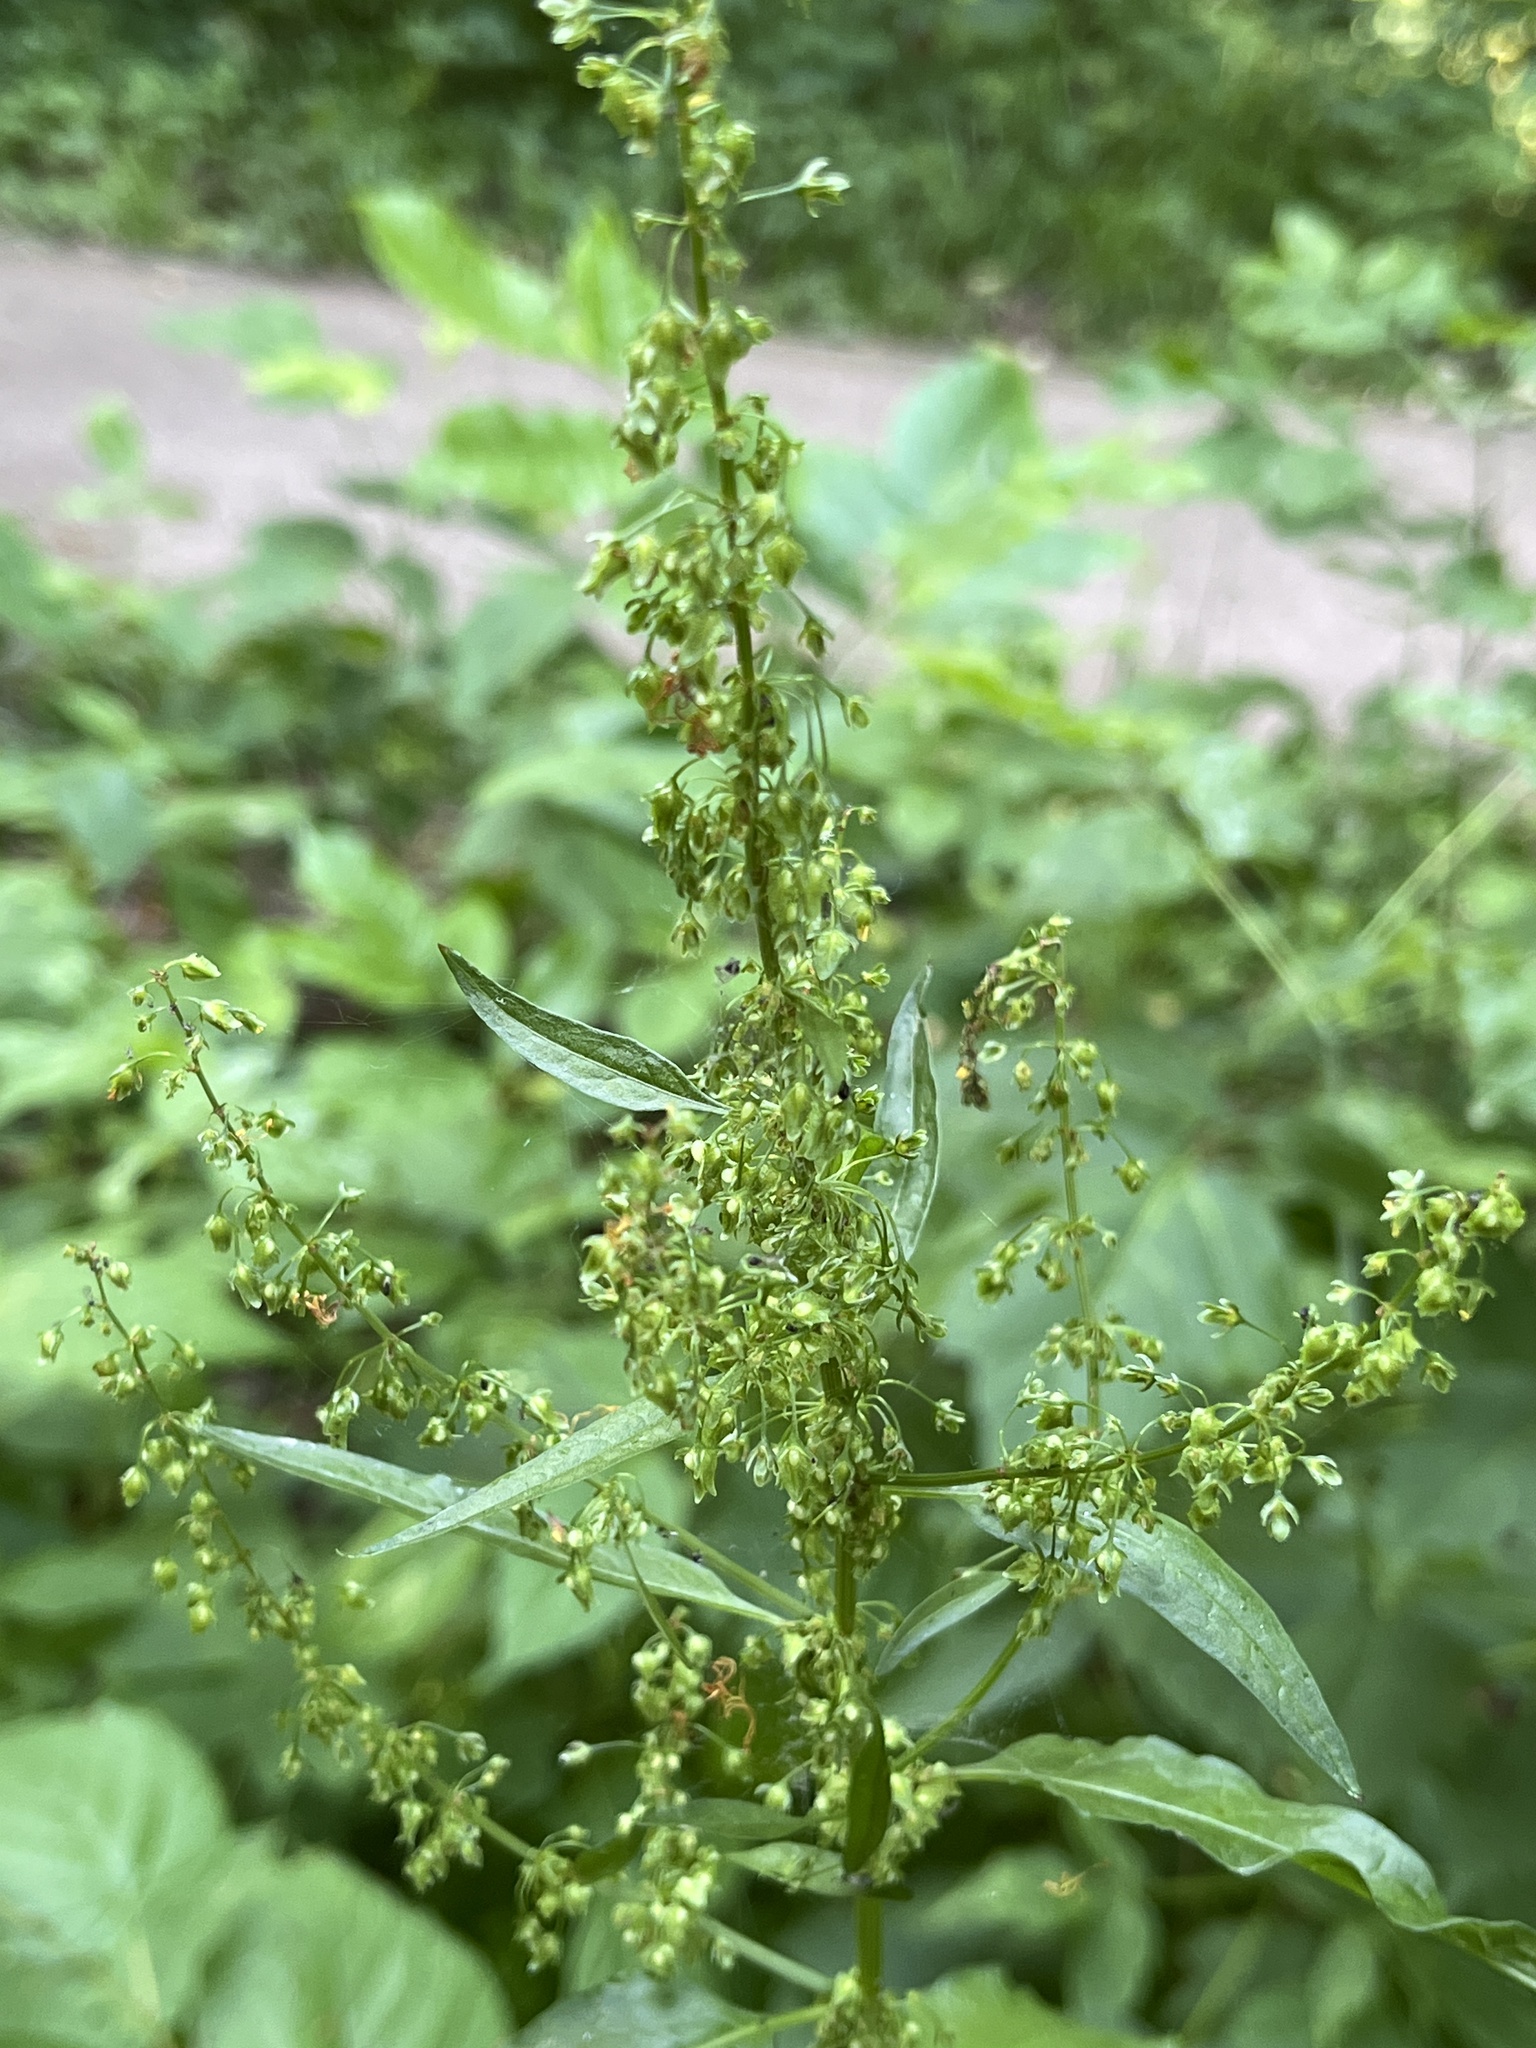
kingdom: Plantae
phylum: Tracheophyta
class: Magnoliopsida
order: Caryophyllales
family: Polygonaceae
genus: Rumex
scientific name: Rumex obtusifolius
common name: Bitter dock
